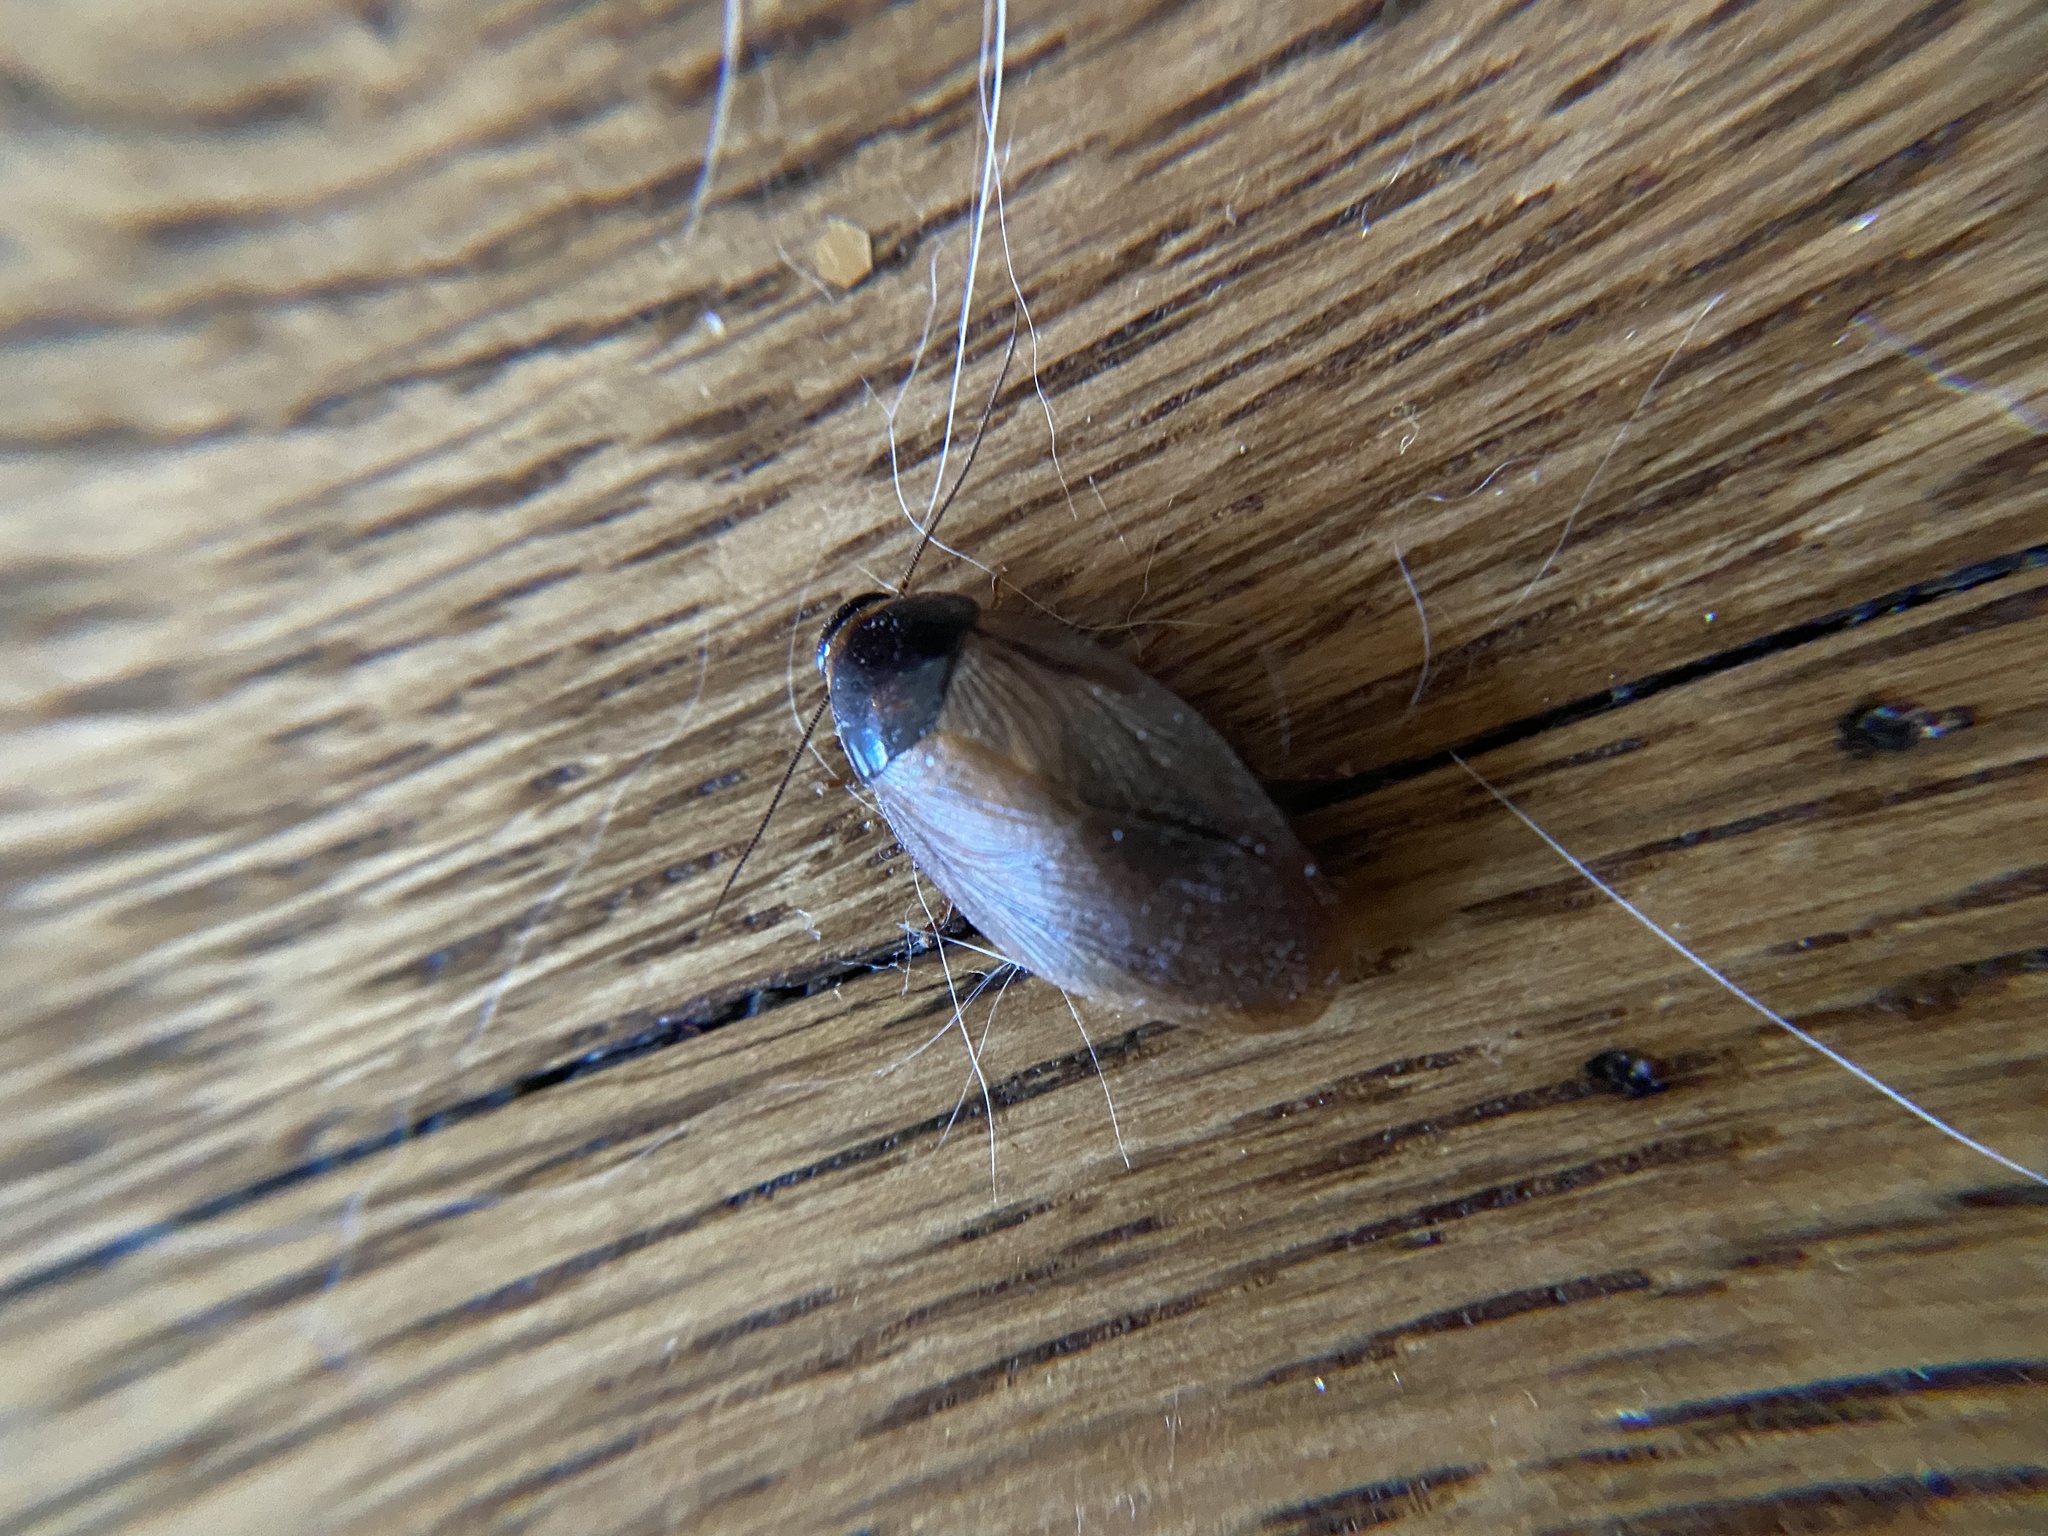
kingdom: Animalia
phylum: Arthropoda
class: Insecta
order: Blattodea
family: Blaberidae
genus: Pycnoscelus
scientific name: Pycnoscelus surinamensis
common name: Surinam cockroach
